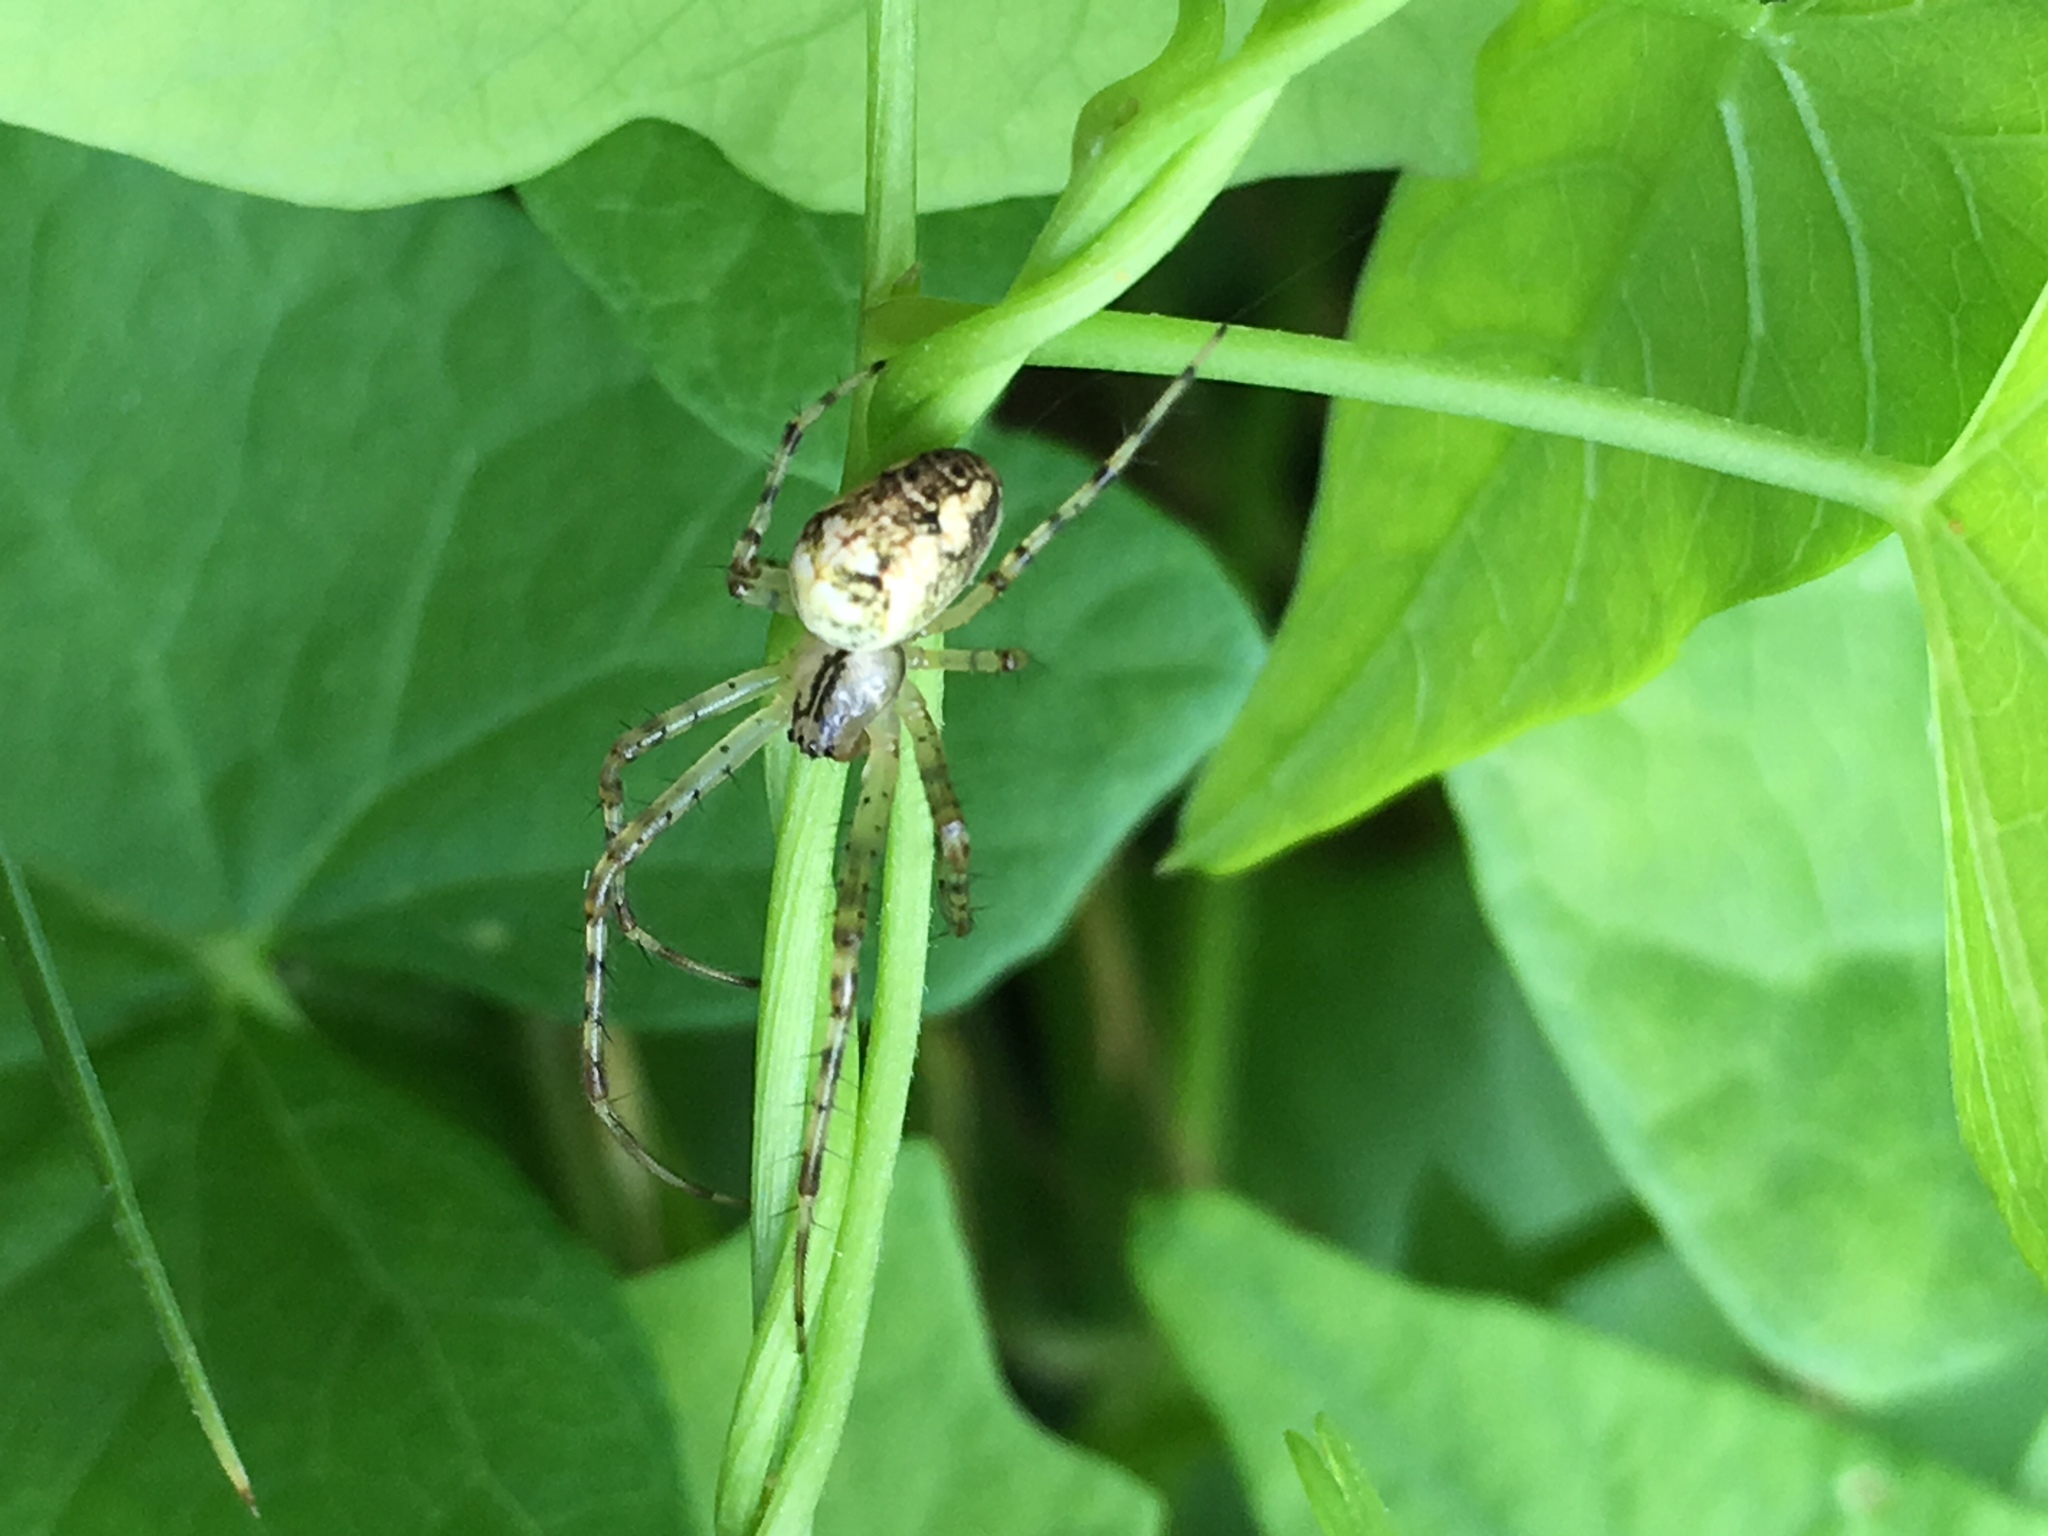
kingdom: Animalia
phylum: Arthropoda
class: Arachnida
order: Araneae
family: Tetragnathidae
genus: Metellina
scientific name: Metellina segmentata
